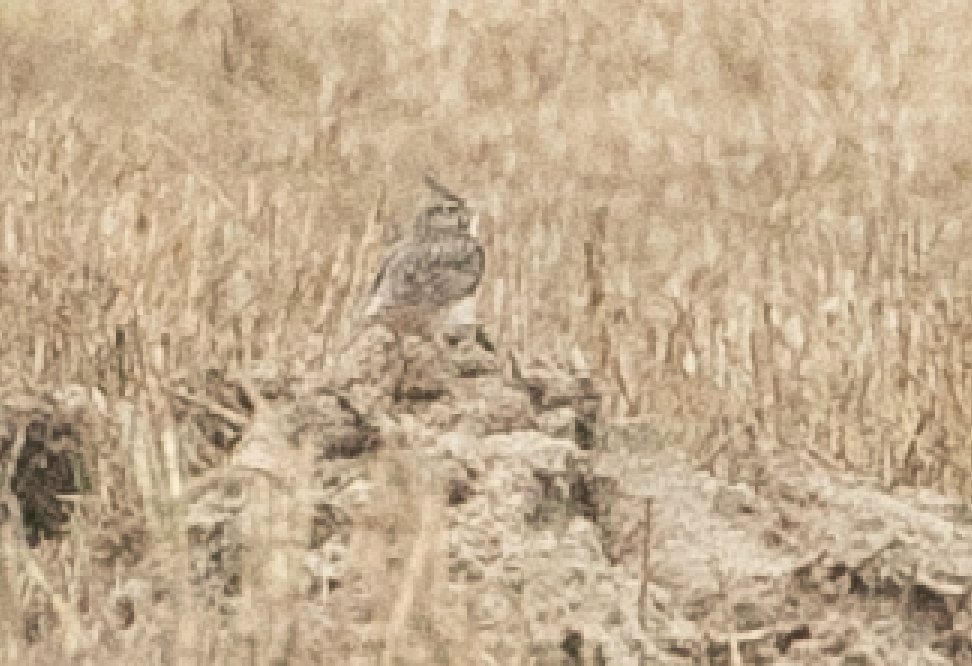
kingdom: Animalia
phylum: Chordata
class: Aves
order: Passeriformes
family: Alaudidae
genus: Galerida
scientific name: Galerida cristata
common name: Crested lark
